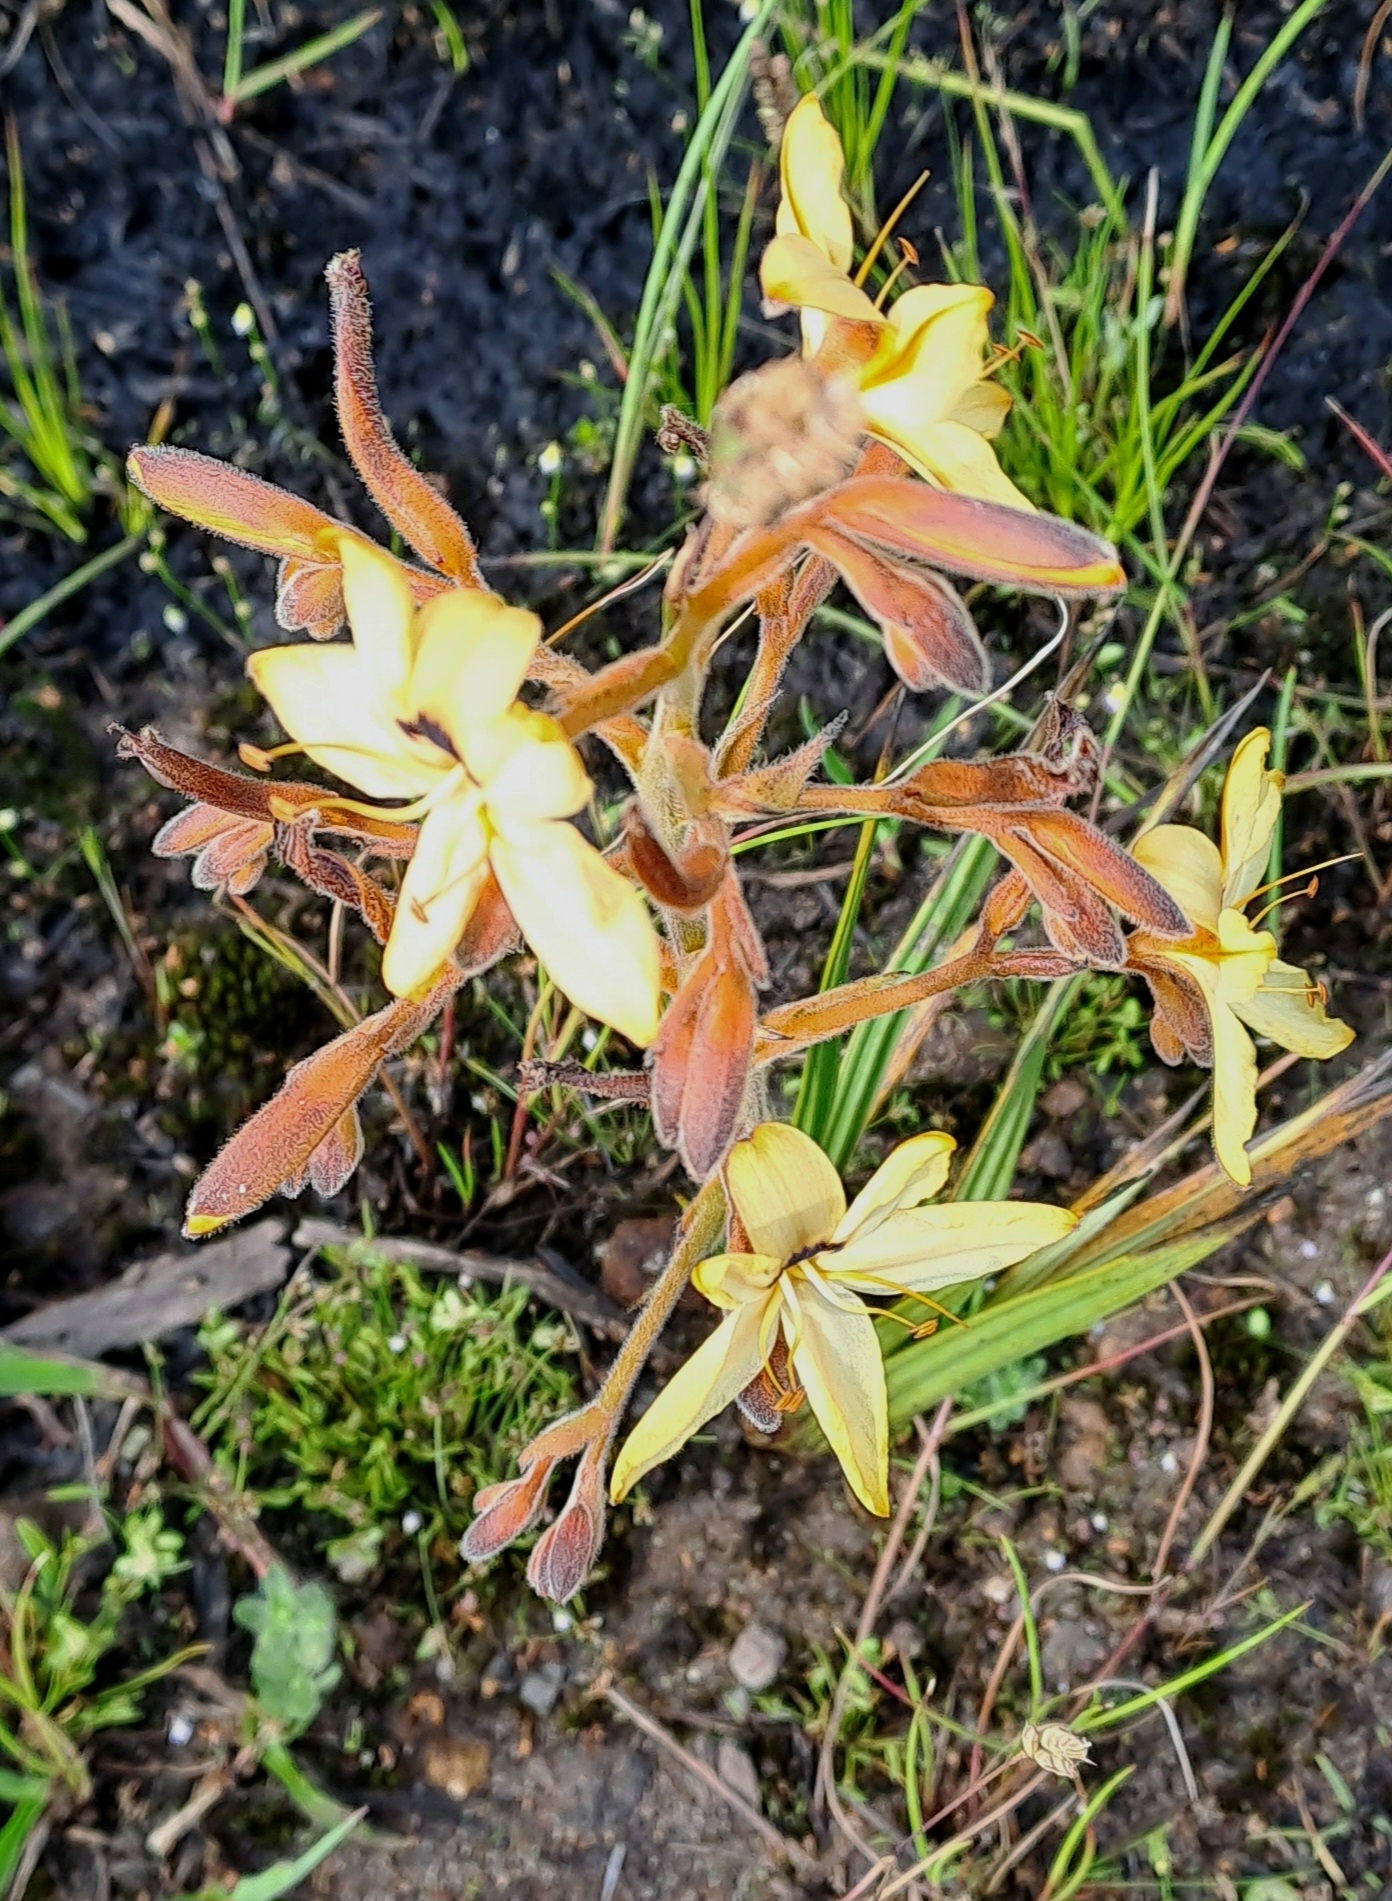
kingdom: Plantae
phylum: Tracheophyta
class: Liliopsida
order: Commelinales
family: Haemodoraceae
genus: Wachendorfia
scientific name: Wachendorfia paniculata
